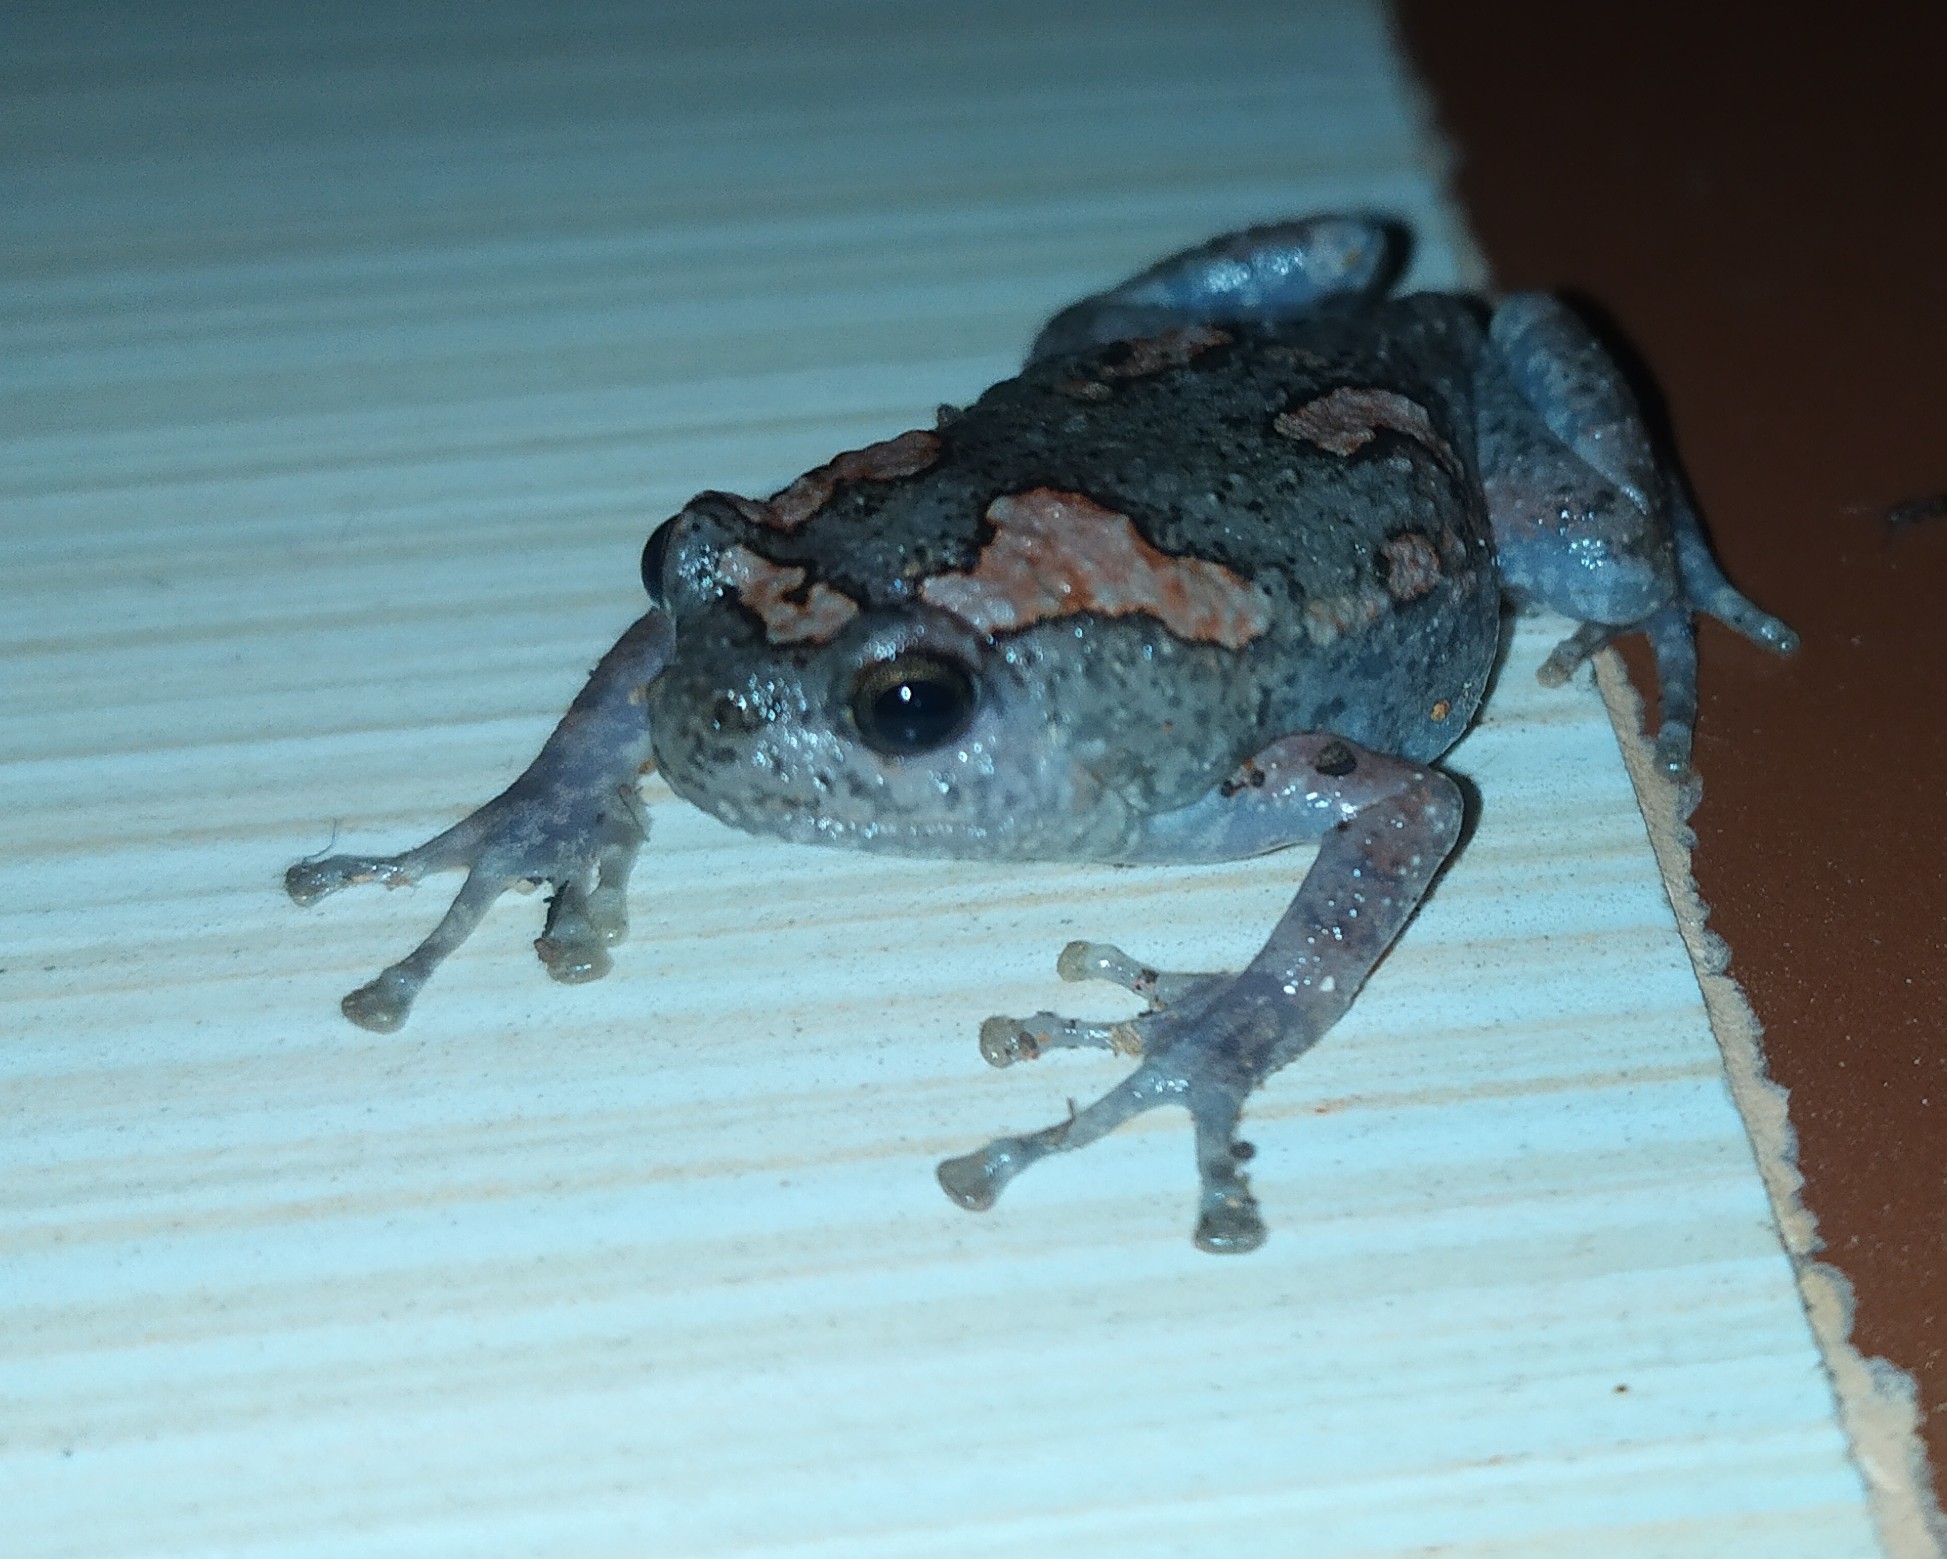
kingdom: Animalia
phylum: Chordata
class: Amphibia
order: Anura
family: Microhylidae
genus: Uperodon
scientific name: Uperodon taprobanicus
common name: Ceylon kaloula
